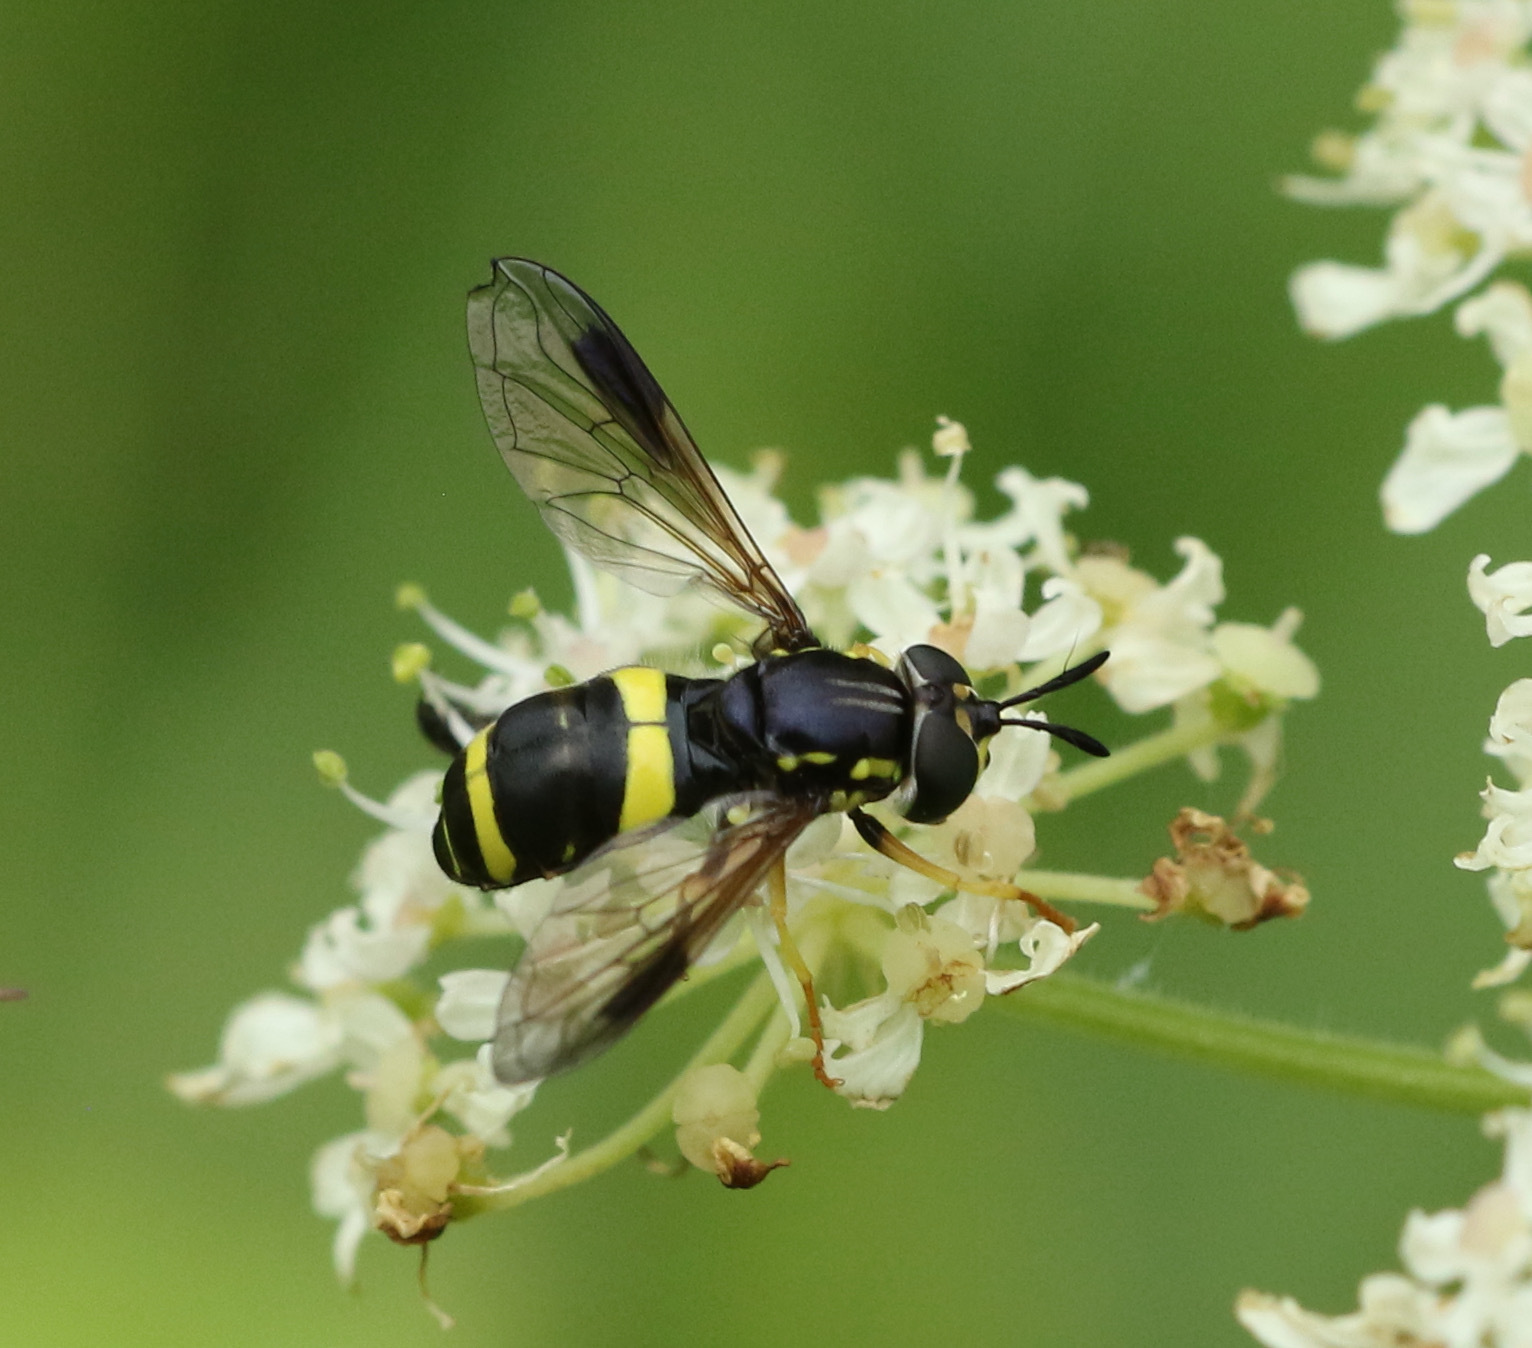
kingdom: Animalia
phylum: Arthropoda
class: Insecta
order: Diptera
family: Syrphidae
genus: Chrysotoxum
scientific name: Chrysotoxum bicincta
